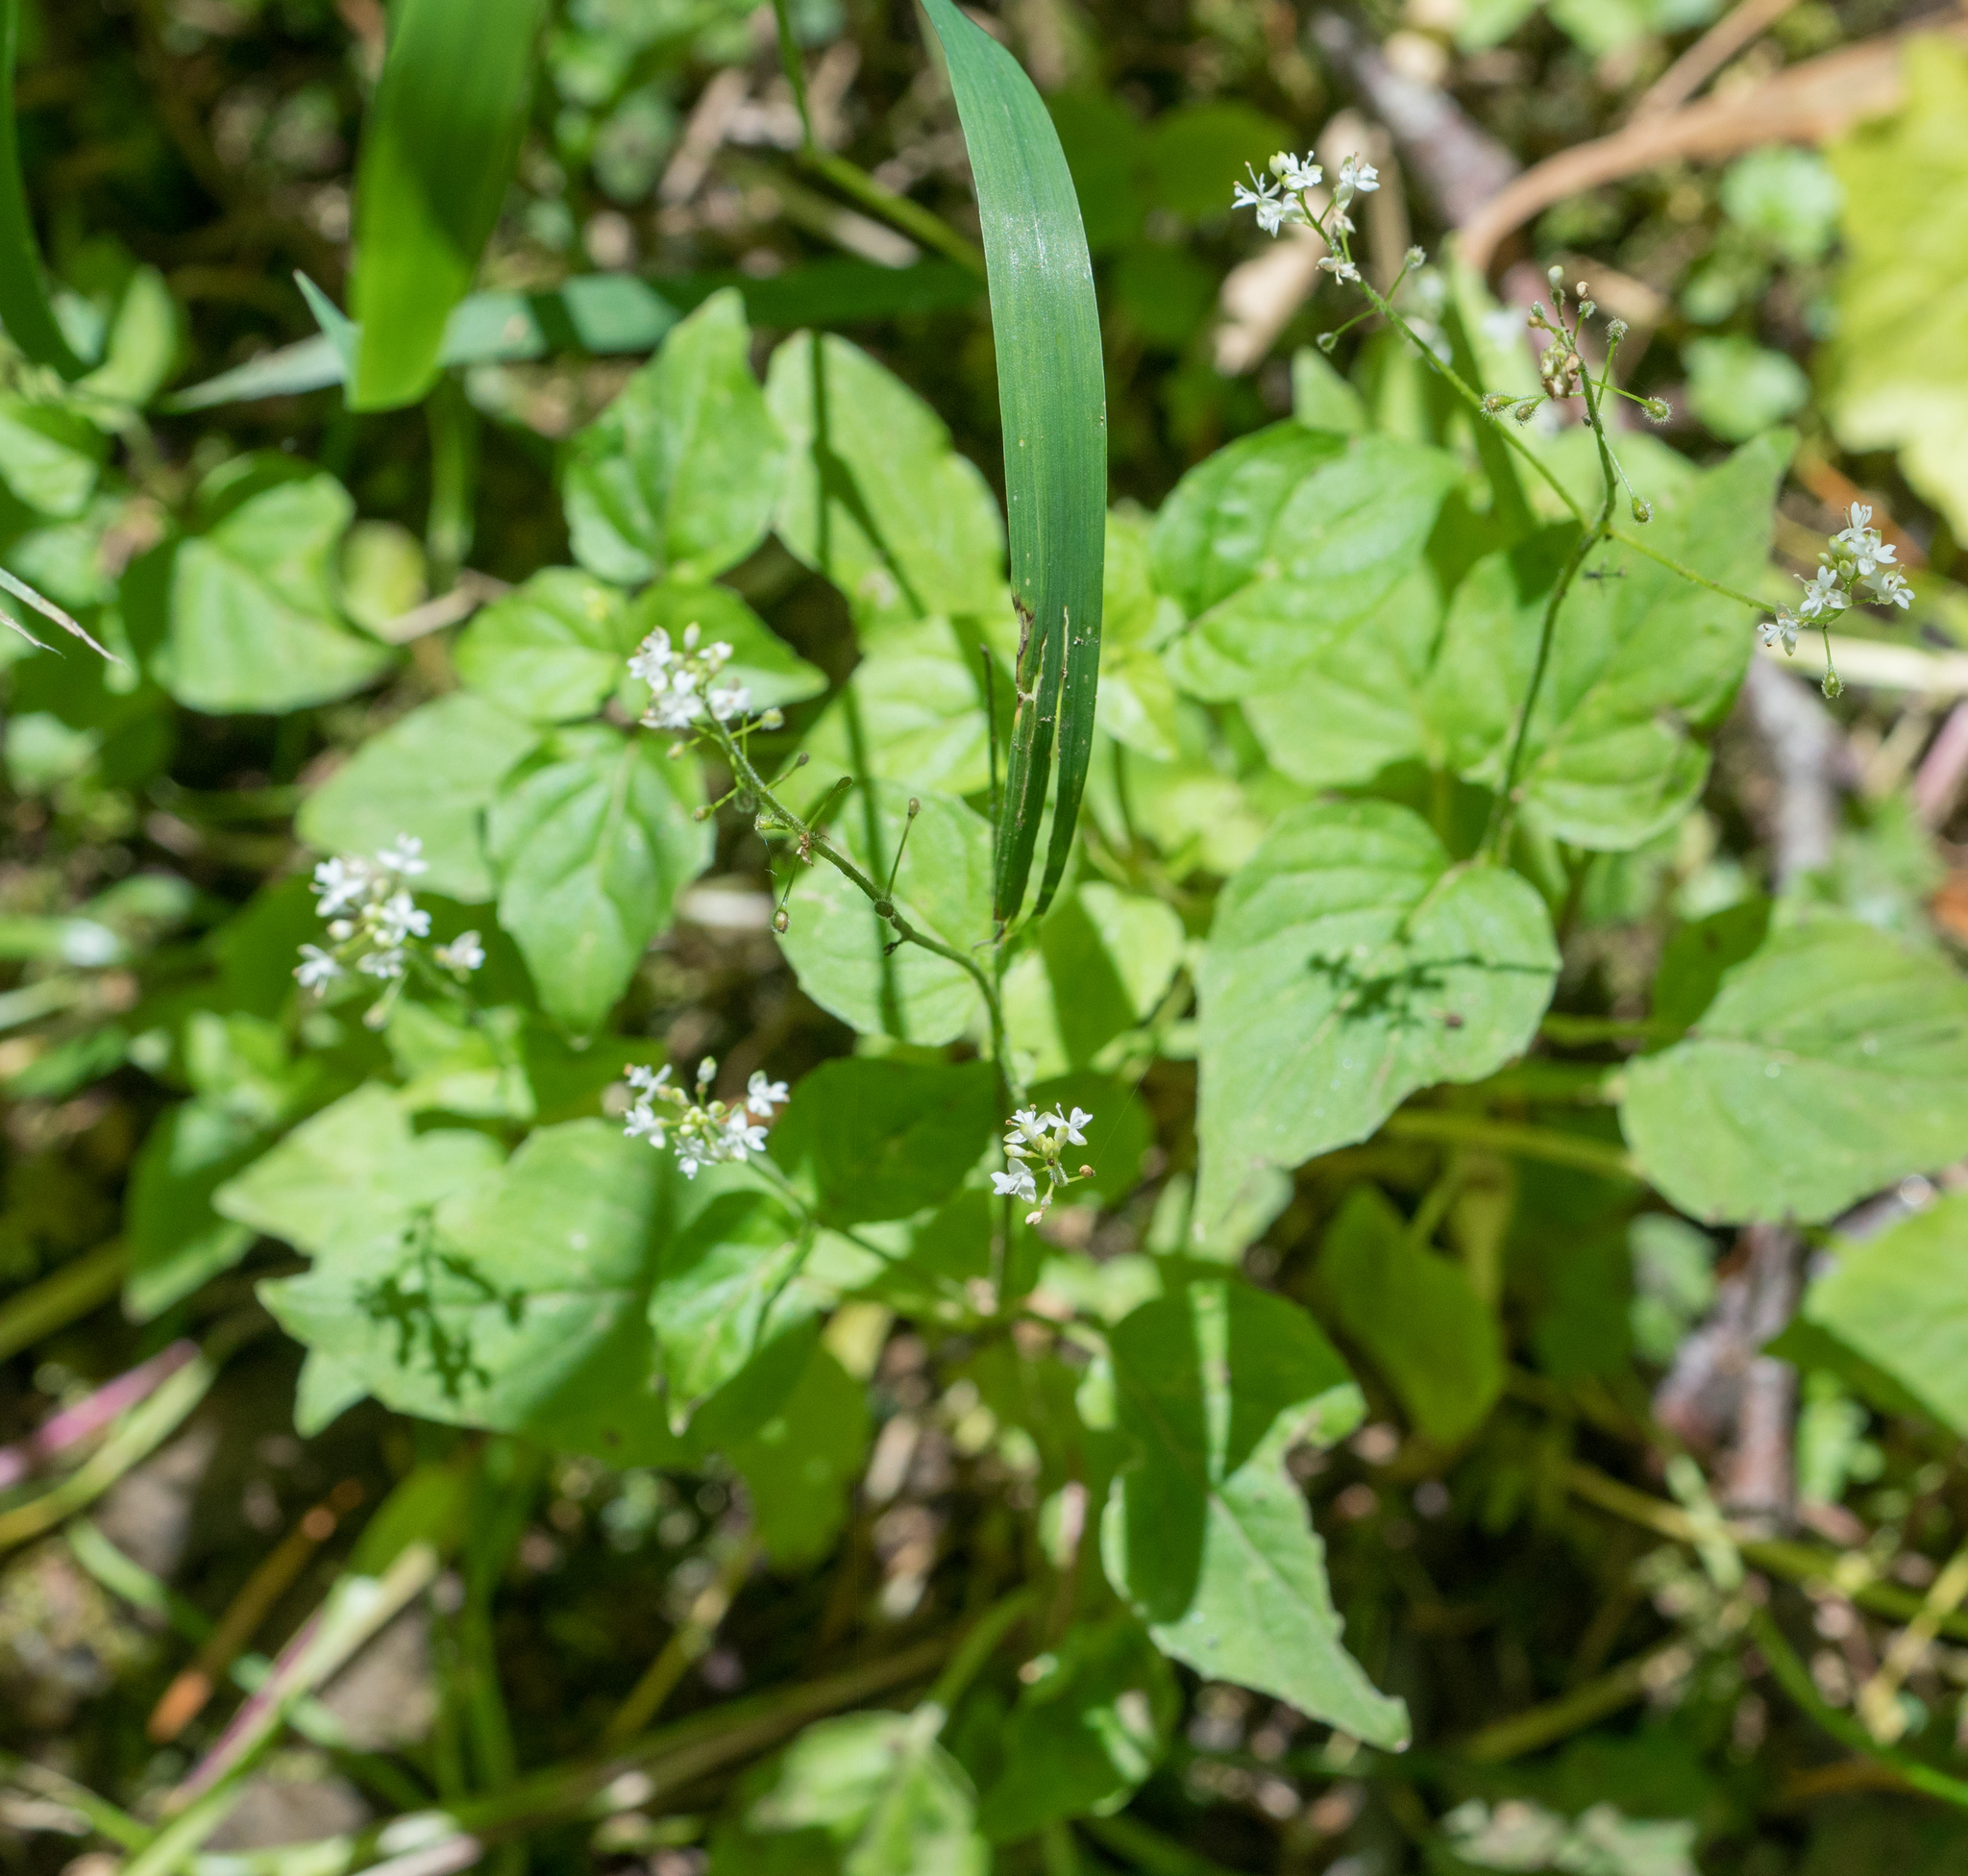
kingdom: Plantae
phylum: Tracheophyta
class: Magnoliopsida
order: Myrtales
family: Onagraceae
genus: Circaea
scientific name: Circaea alpina
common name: Alpine enchanter's-nightshade
